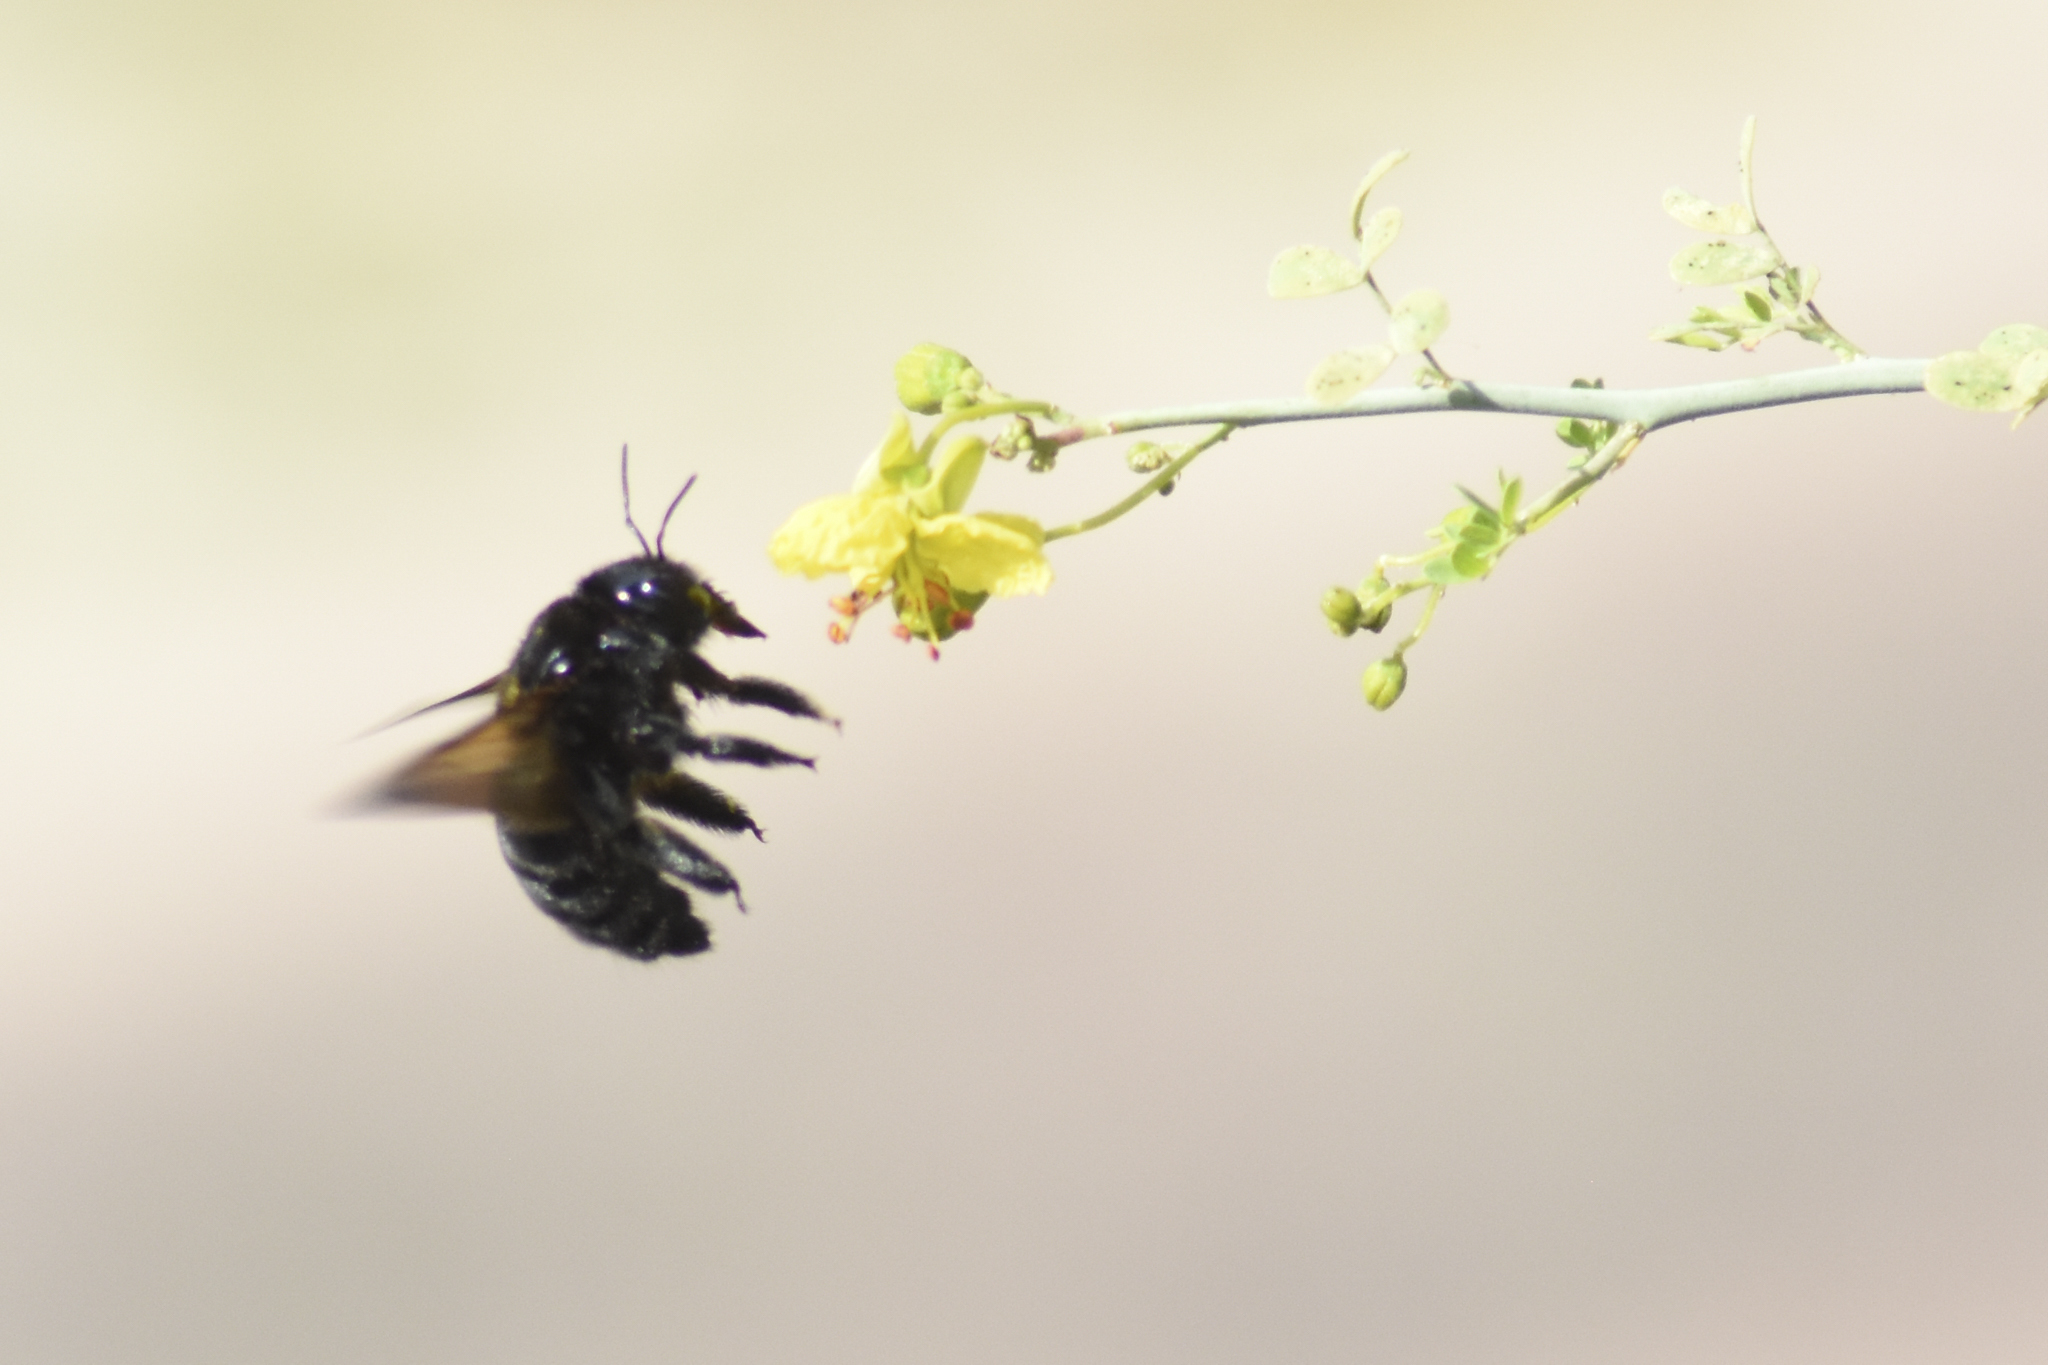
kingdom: Animalia
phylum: Arthropoda
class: Insecta
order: Hymenoptera
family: Apidae
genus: Xylocopa
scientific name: Xylocopa sonorina
